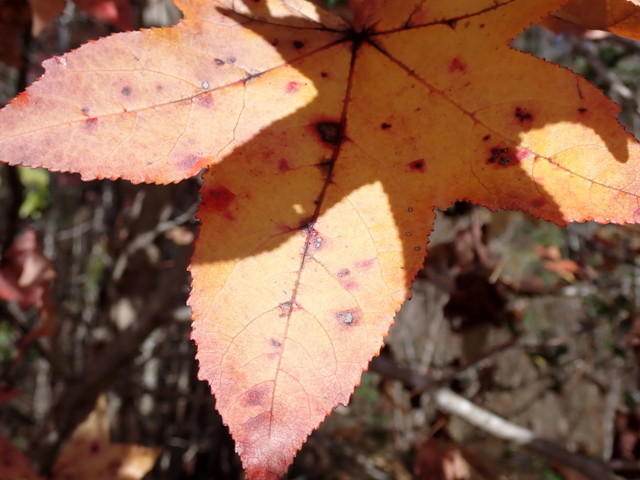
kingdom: Plantae
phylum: Tracheophyta
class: Magnoliopsida
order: Saxifragales
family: Altingiaceae
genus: Liquidambar
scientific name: Liquidambar styraciflua
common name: Sweet gum
